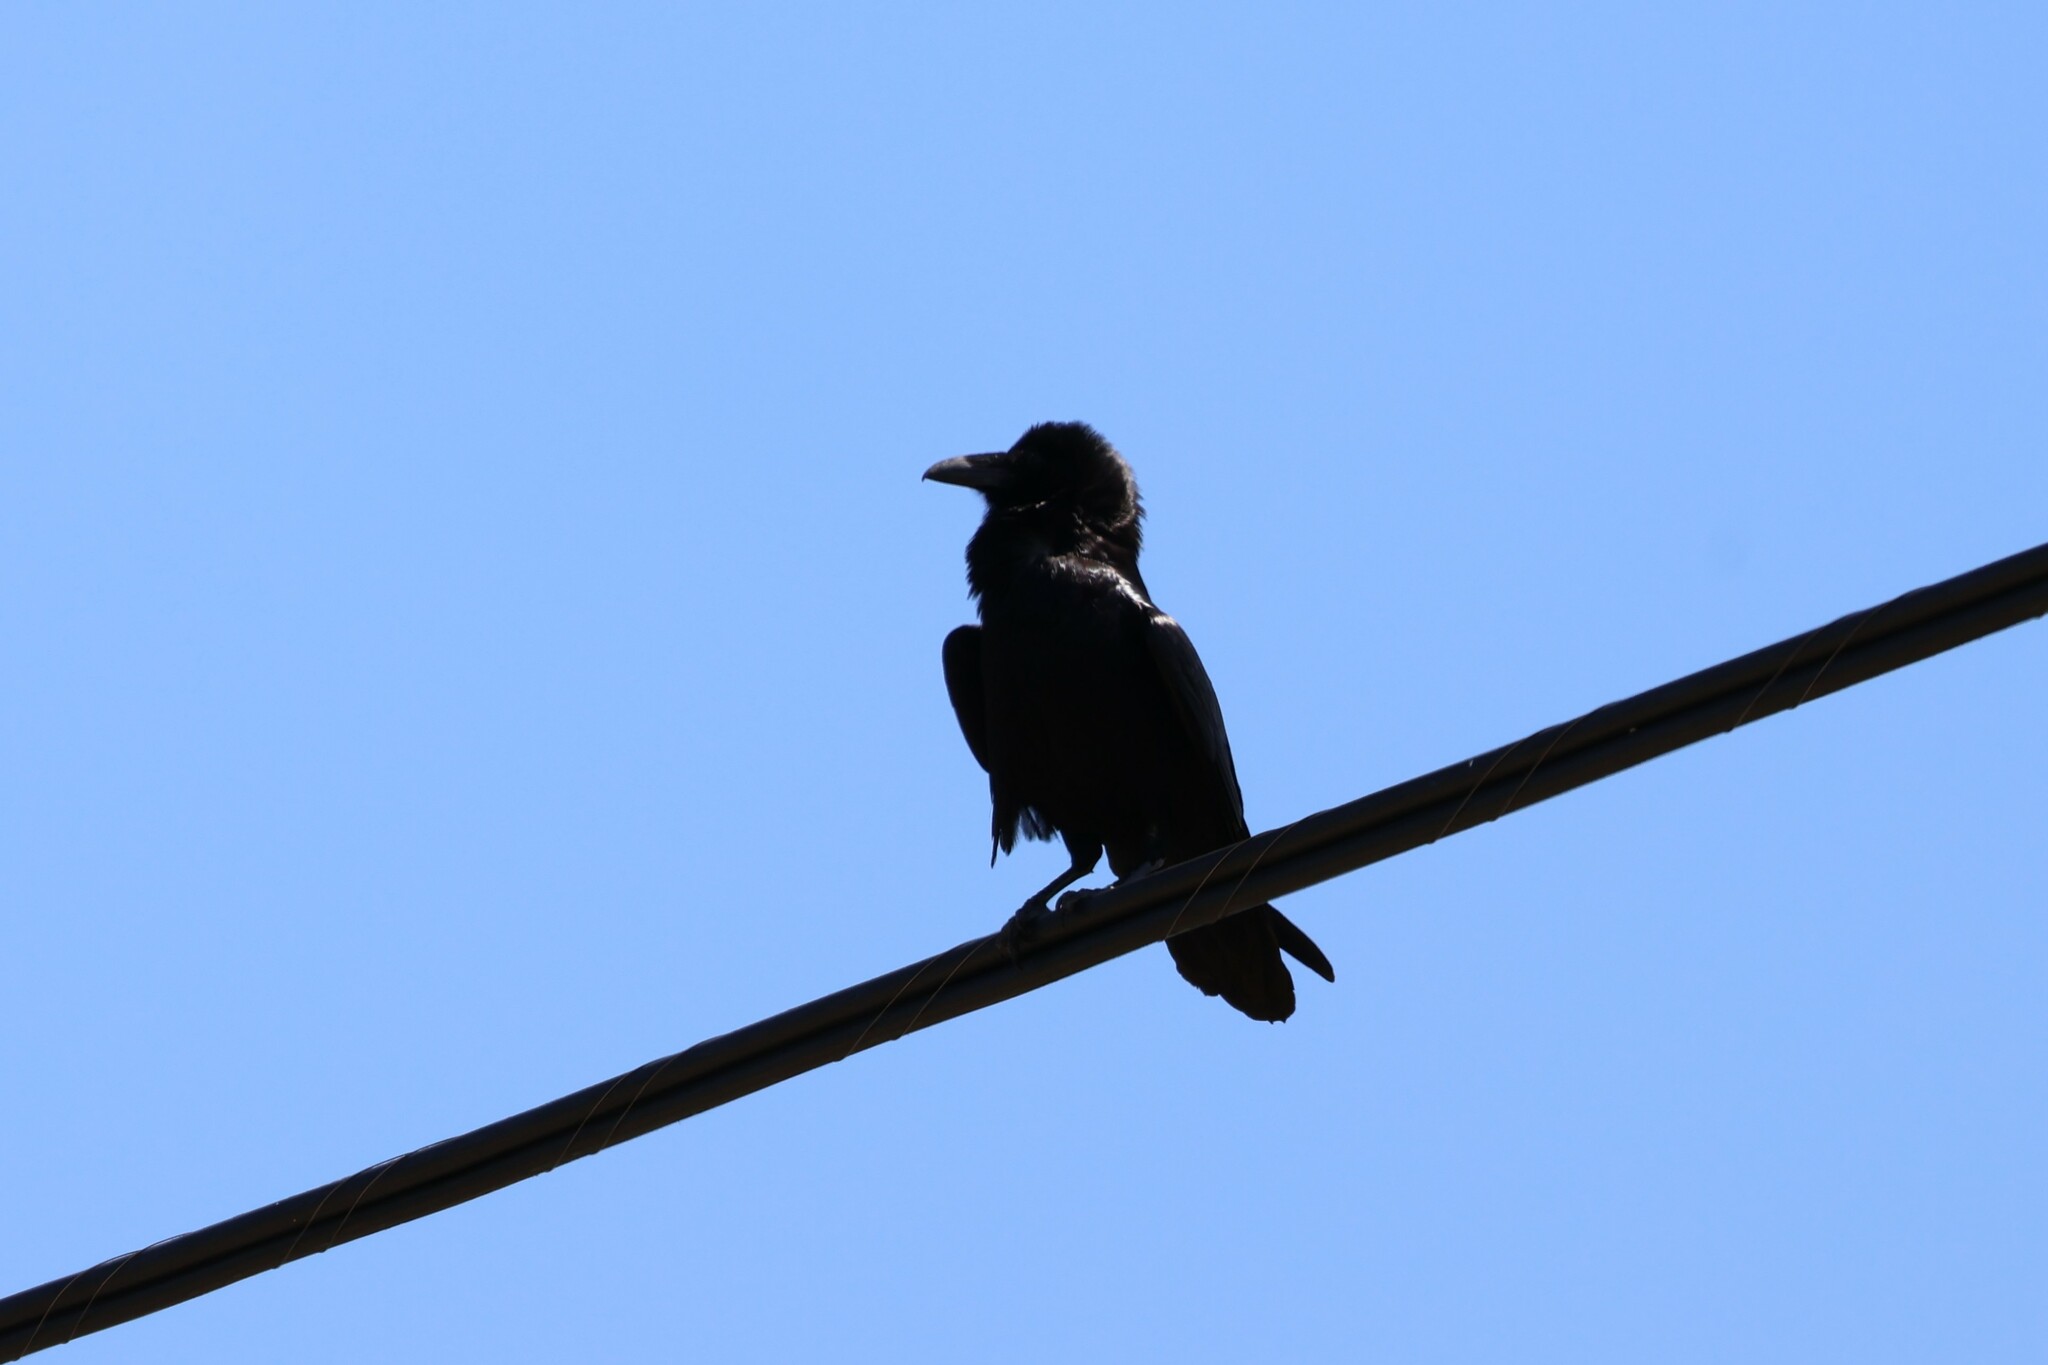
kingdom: Animalia
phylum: Chordata
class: Aves
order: Passeriformes
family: Corvidae
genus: Corvus
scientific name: Corvus corax
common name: Common raven
